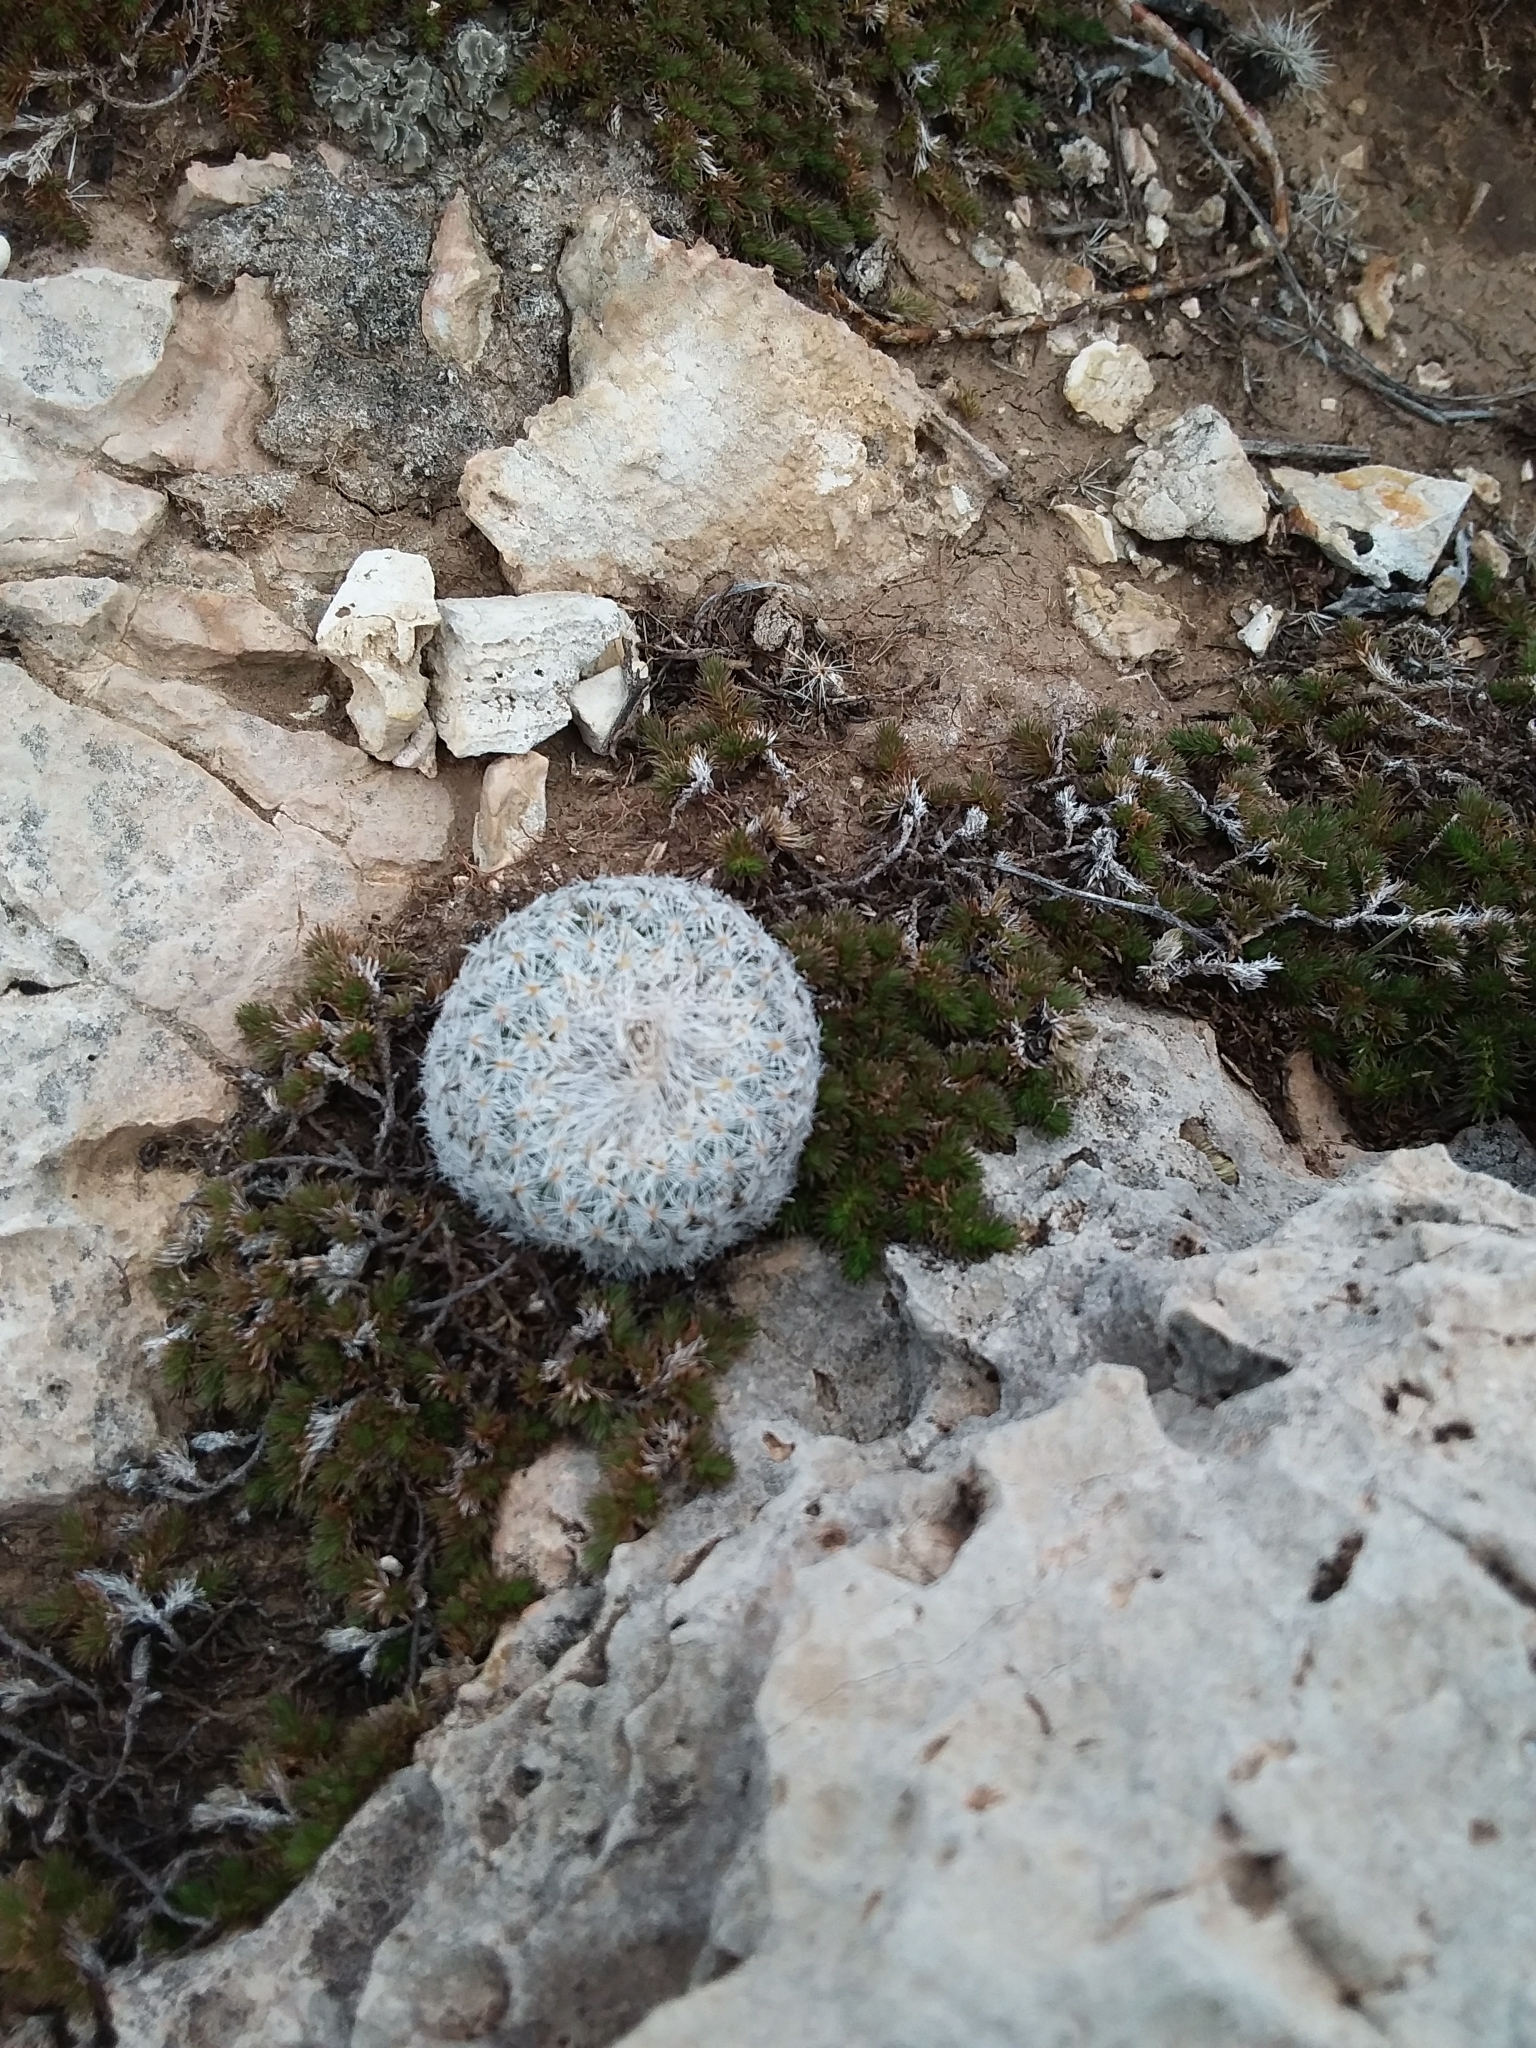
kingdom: Plantae
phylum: Tracheophyta
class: Magnoliopsida
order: Caryophyllales
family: Cactaceae
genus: Epithelantha
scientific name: Epithelantha micromeris
